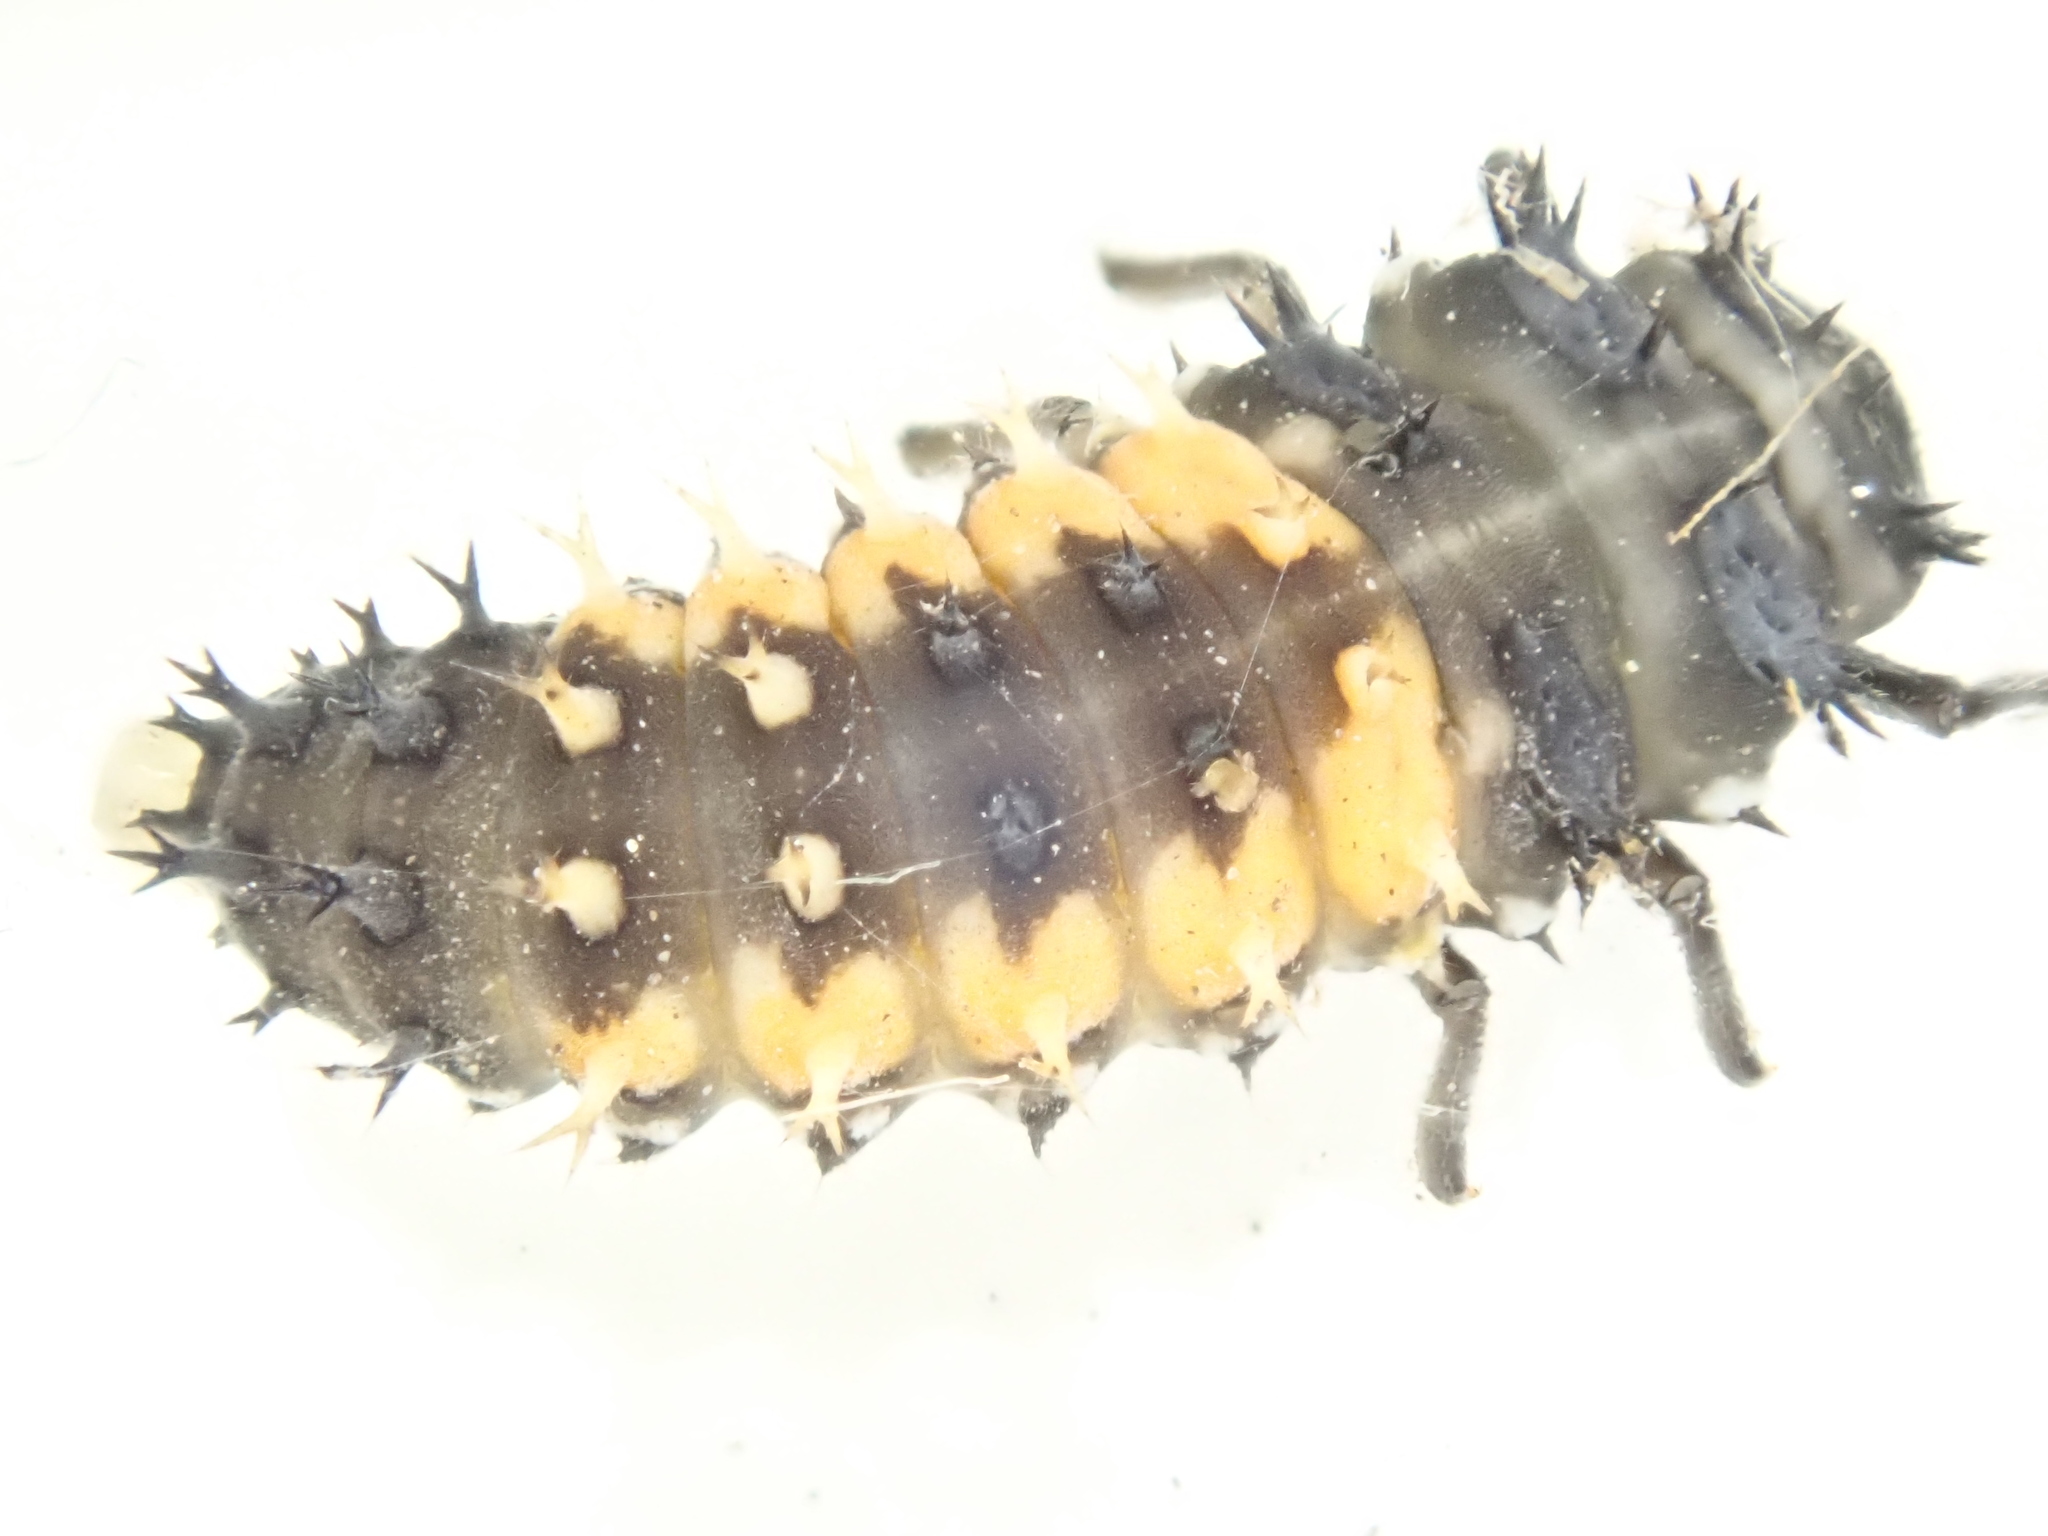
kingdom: Animalia
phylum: Arthropoda
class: Insecta
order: Coleoptera
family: Coccinellidae
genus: Harmonia
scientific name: Harmonia axyridis
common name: Harlequin ladybird
